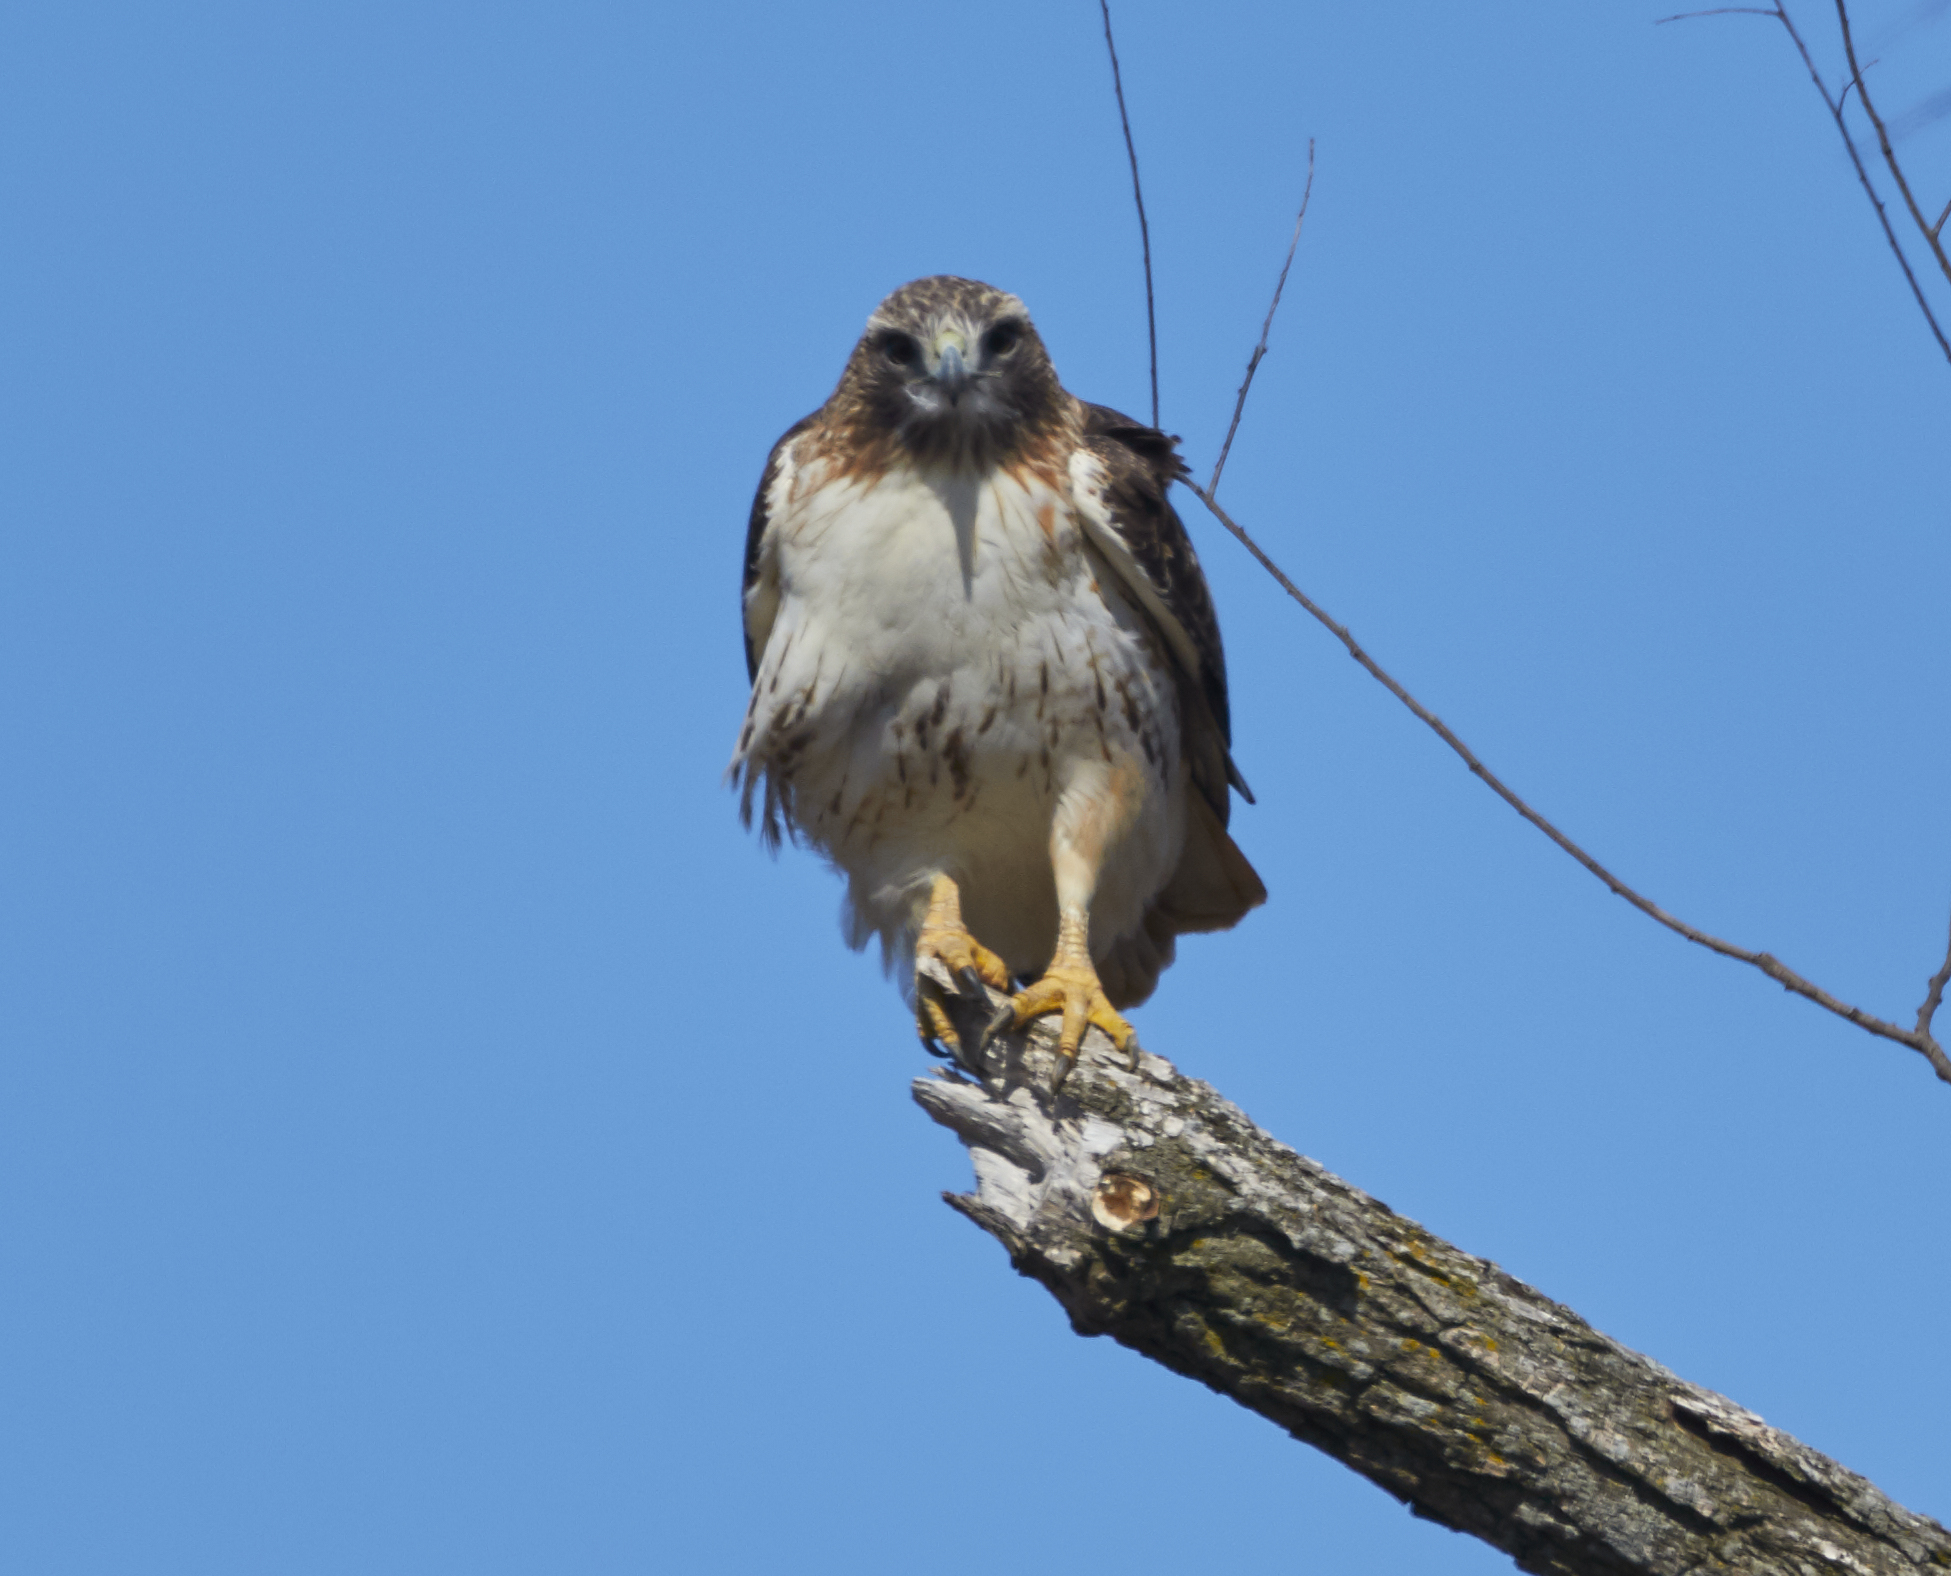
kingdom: Animalia
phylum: Chordata
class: Aves
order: Accipitriformes
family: Accipitridae
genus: Buteo
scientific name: Buteo jamaicensis
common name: Red-tailed hawk
